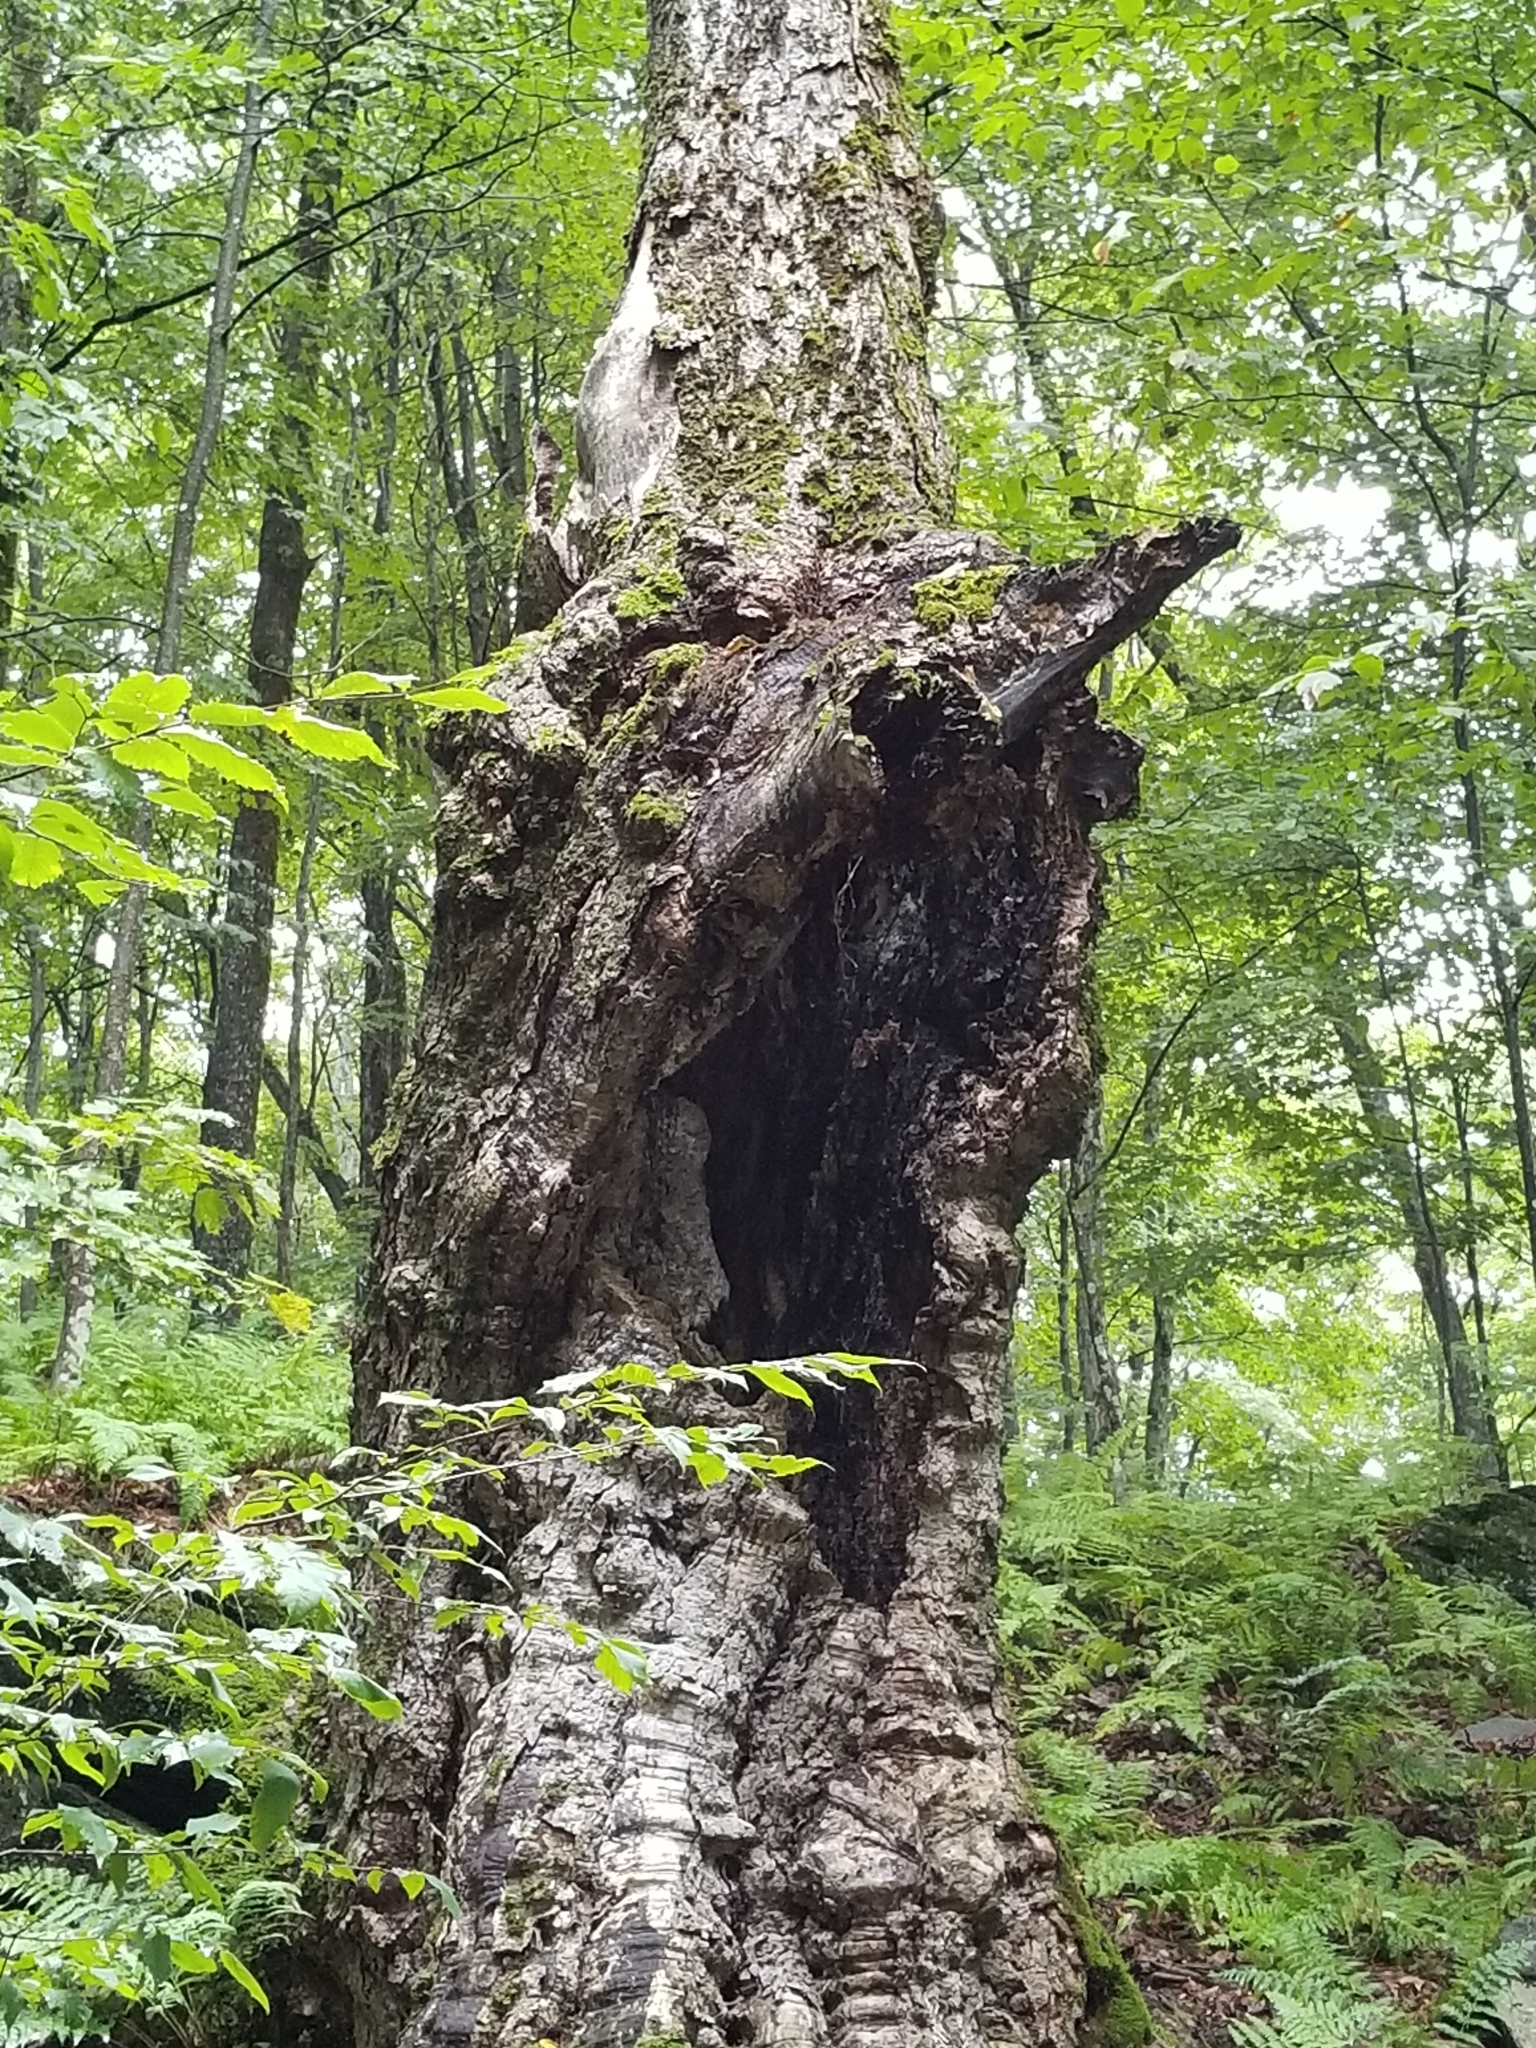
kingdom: Plantae
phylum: Tracheophyta
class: Magnoliopsida
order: Sapindales
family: Sapindaceae
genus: Acer
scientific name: Acer saccharum
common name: Sugar maple
